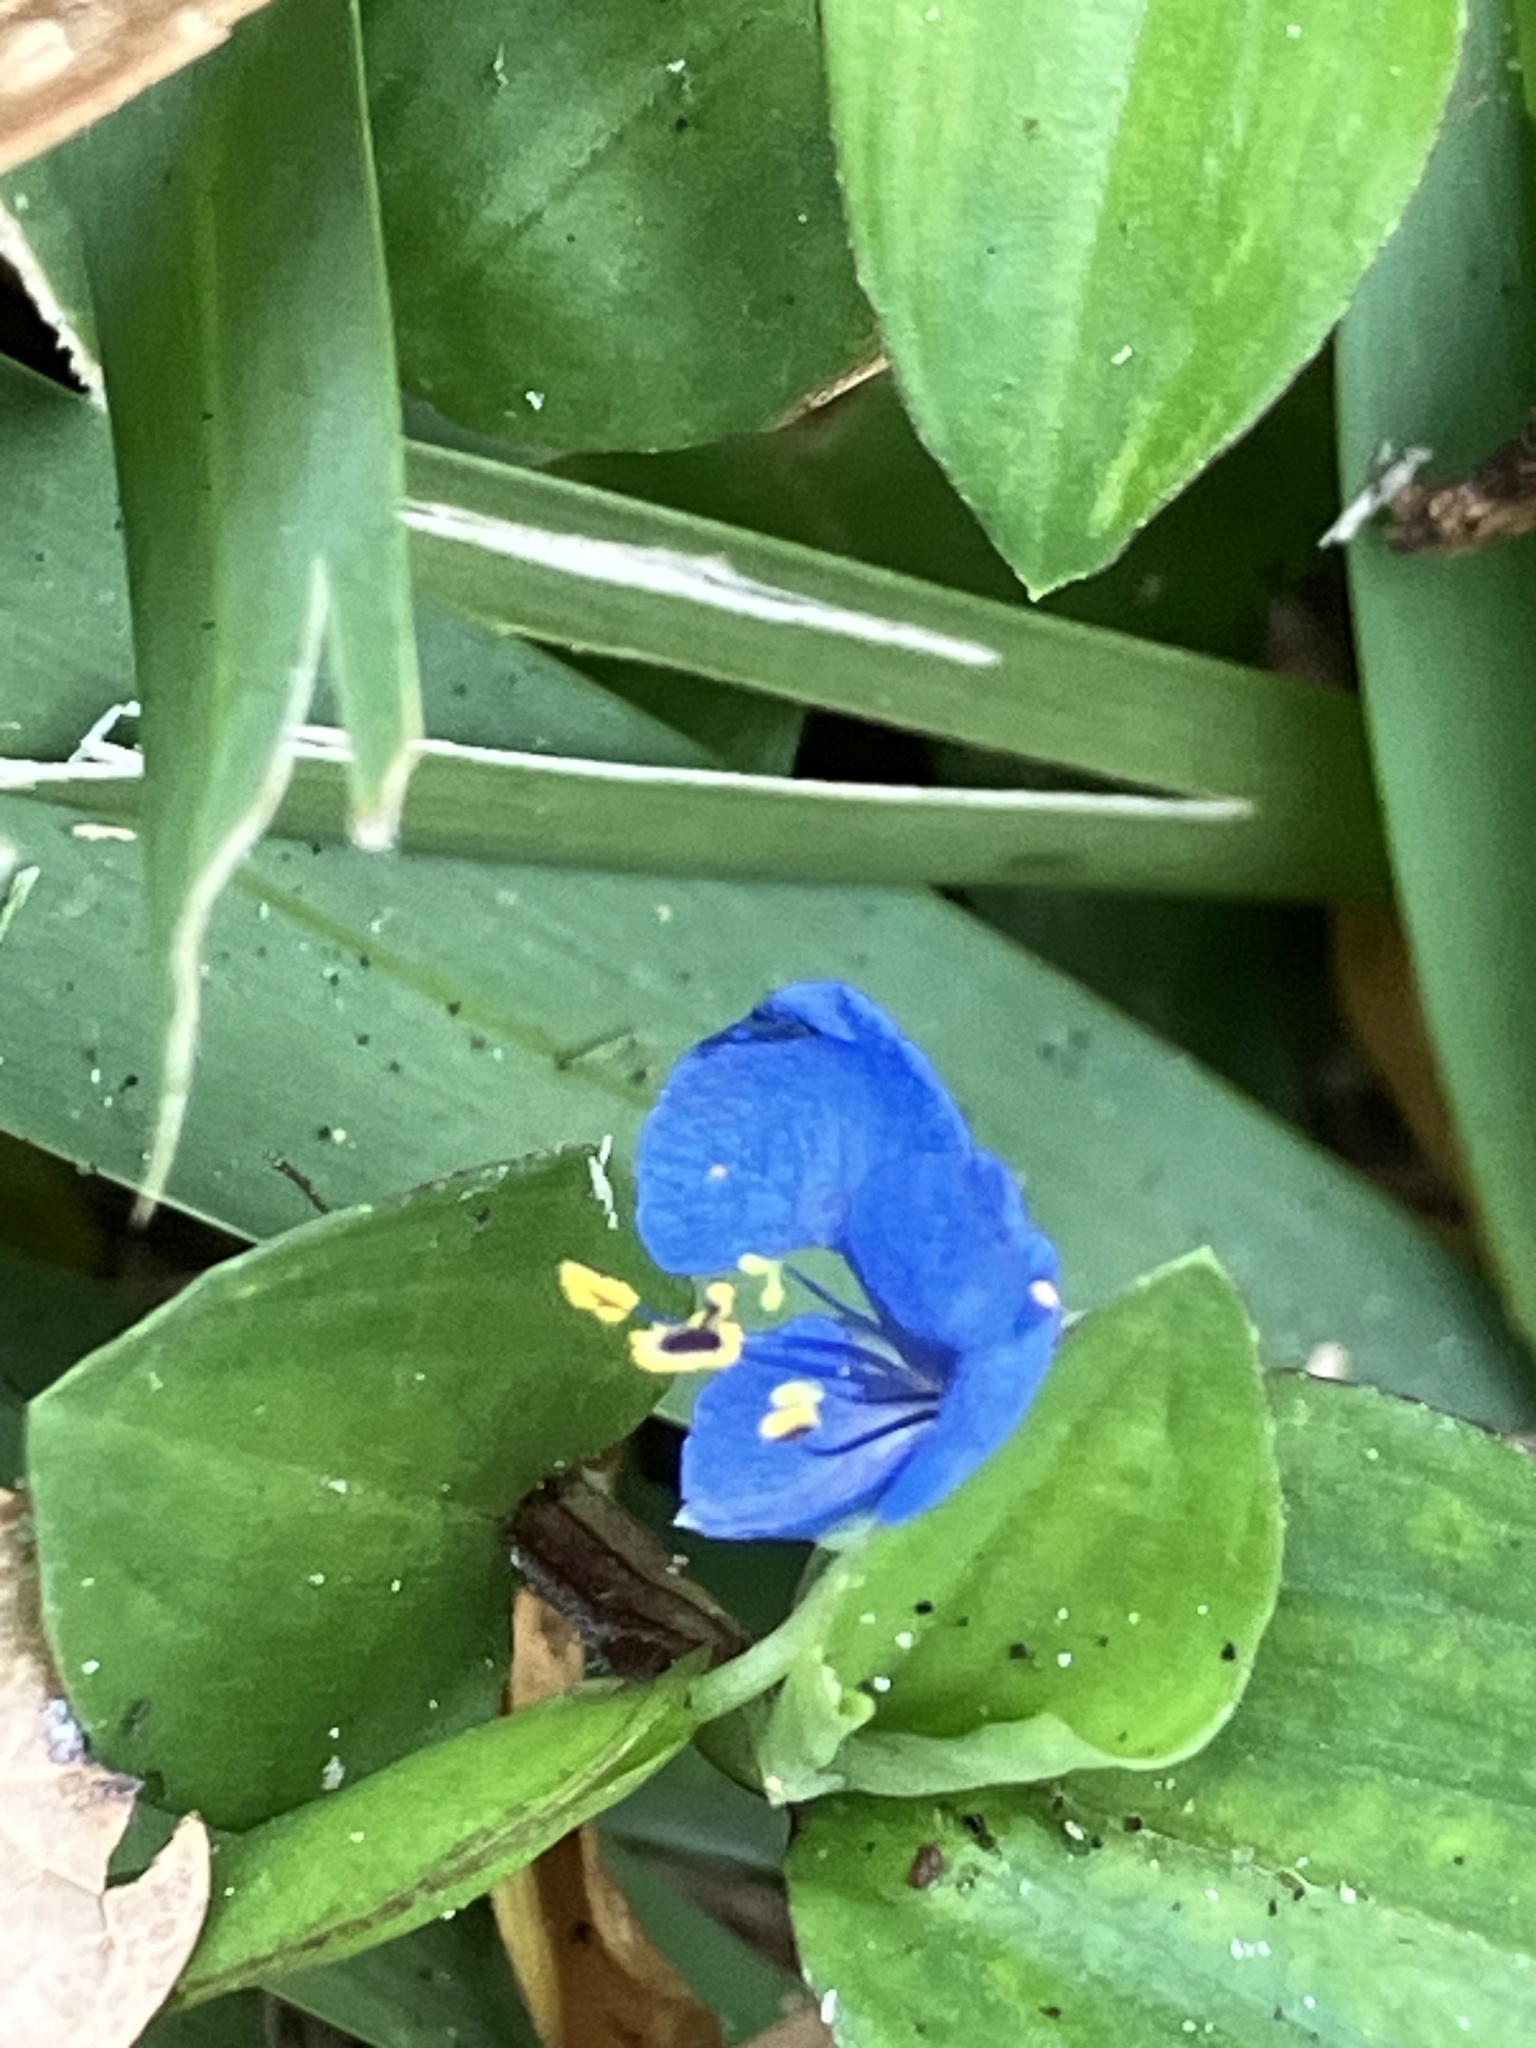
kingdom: Plantae
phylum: Tracheophyta
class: Liliopsida
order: Commelinales
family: Commelinaceae
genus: Commelina
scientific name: Commelina diffusa
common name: Climbing dayflower
